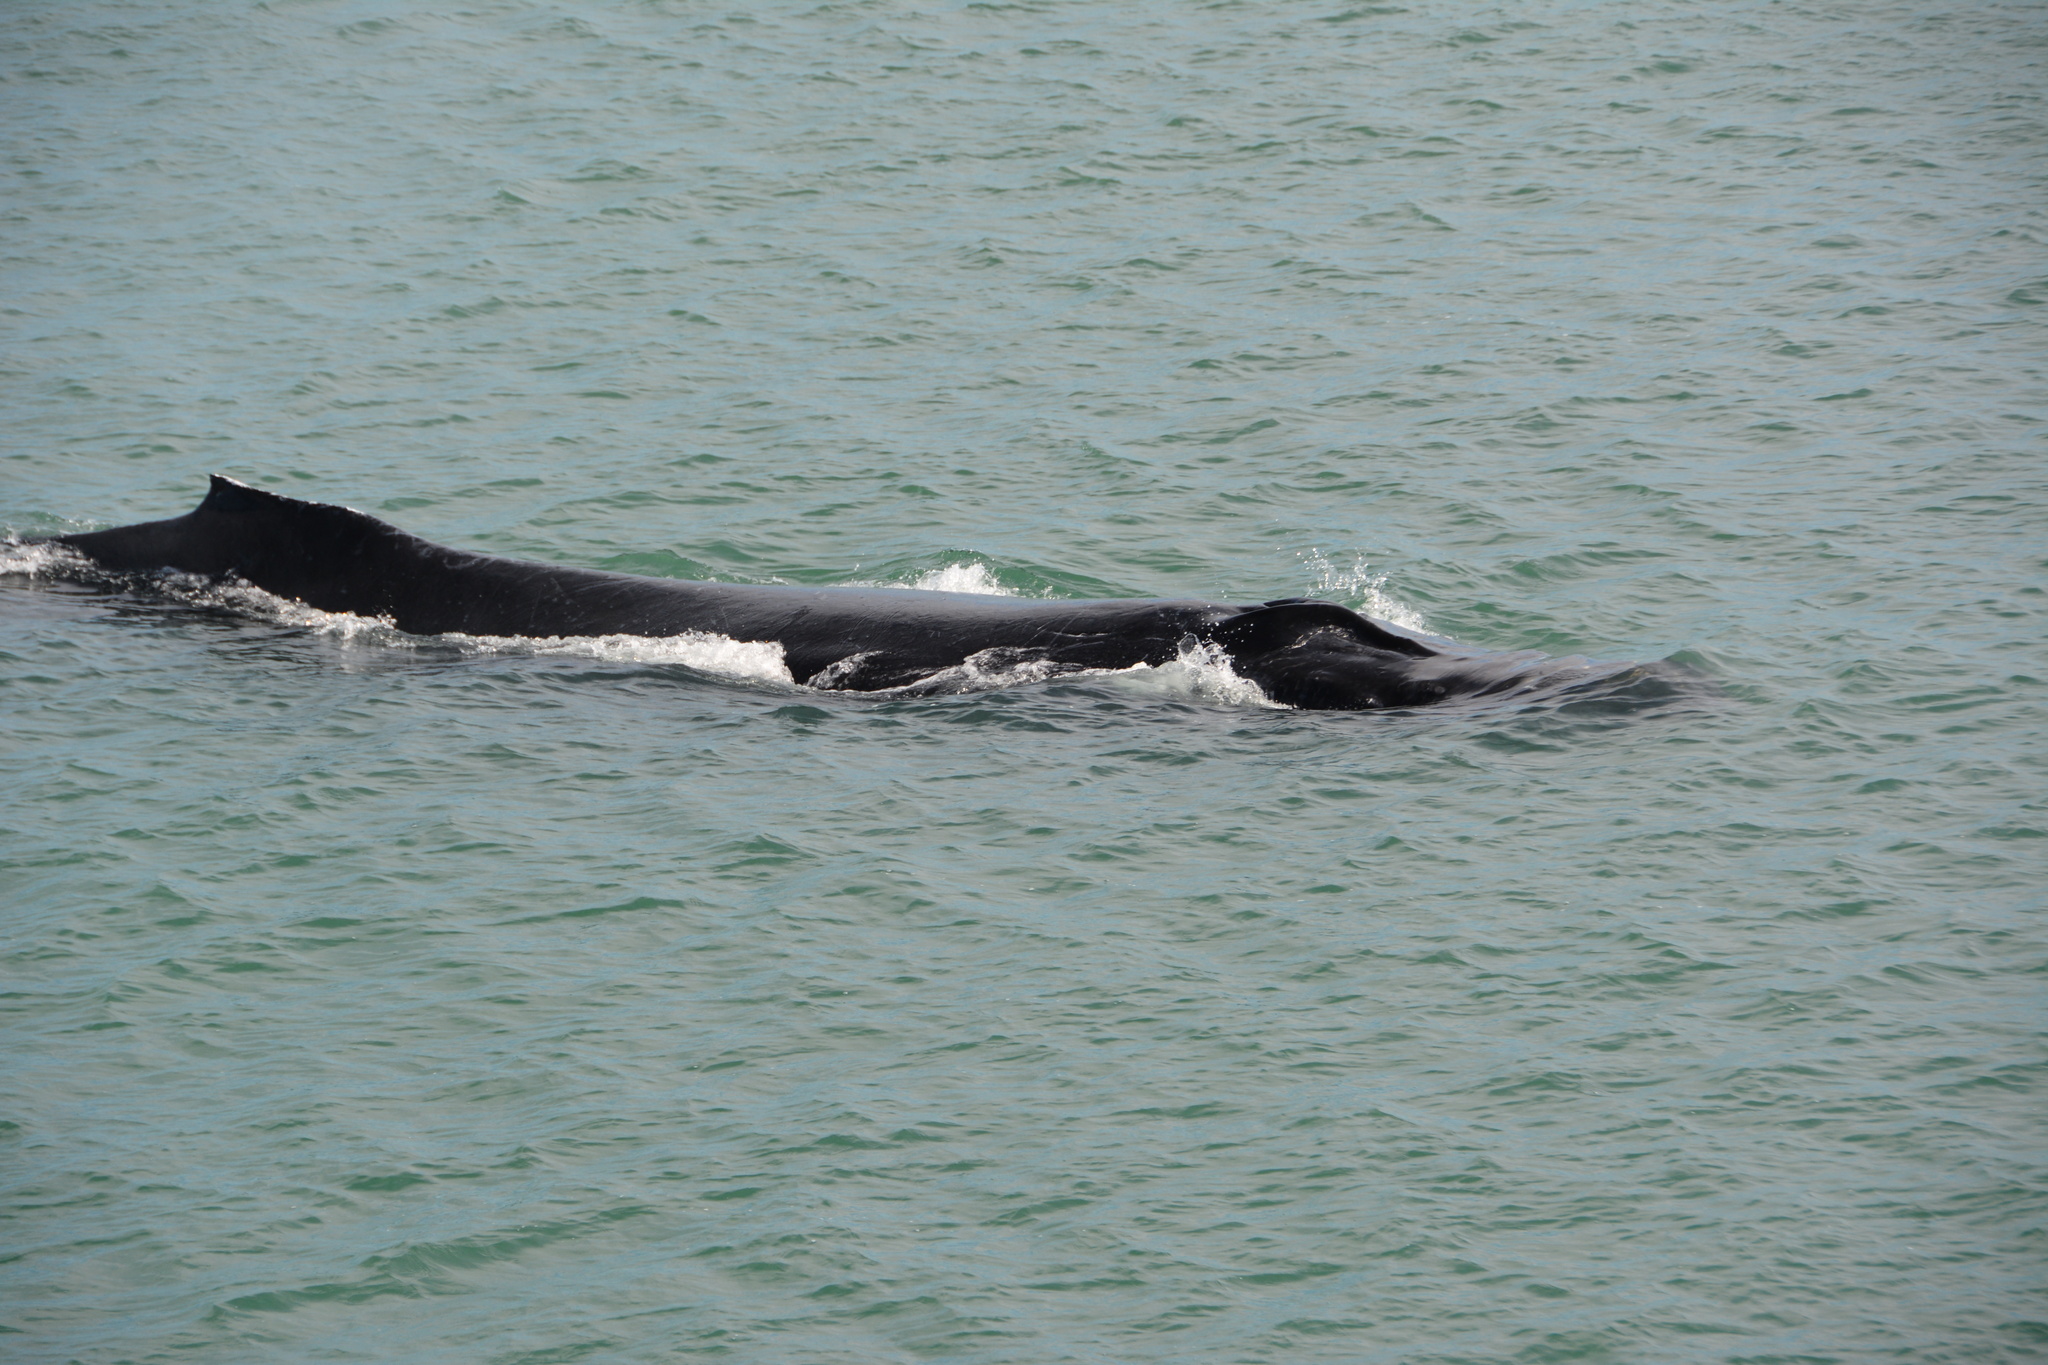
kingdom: Animalia
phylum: Chordata
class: Mammalia
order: Cetacea
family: Balaenopteridae
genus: Megaptera
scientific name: Megaptera novaeangliae
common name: Humpback whale
